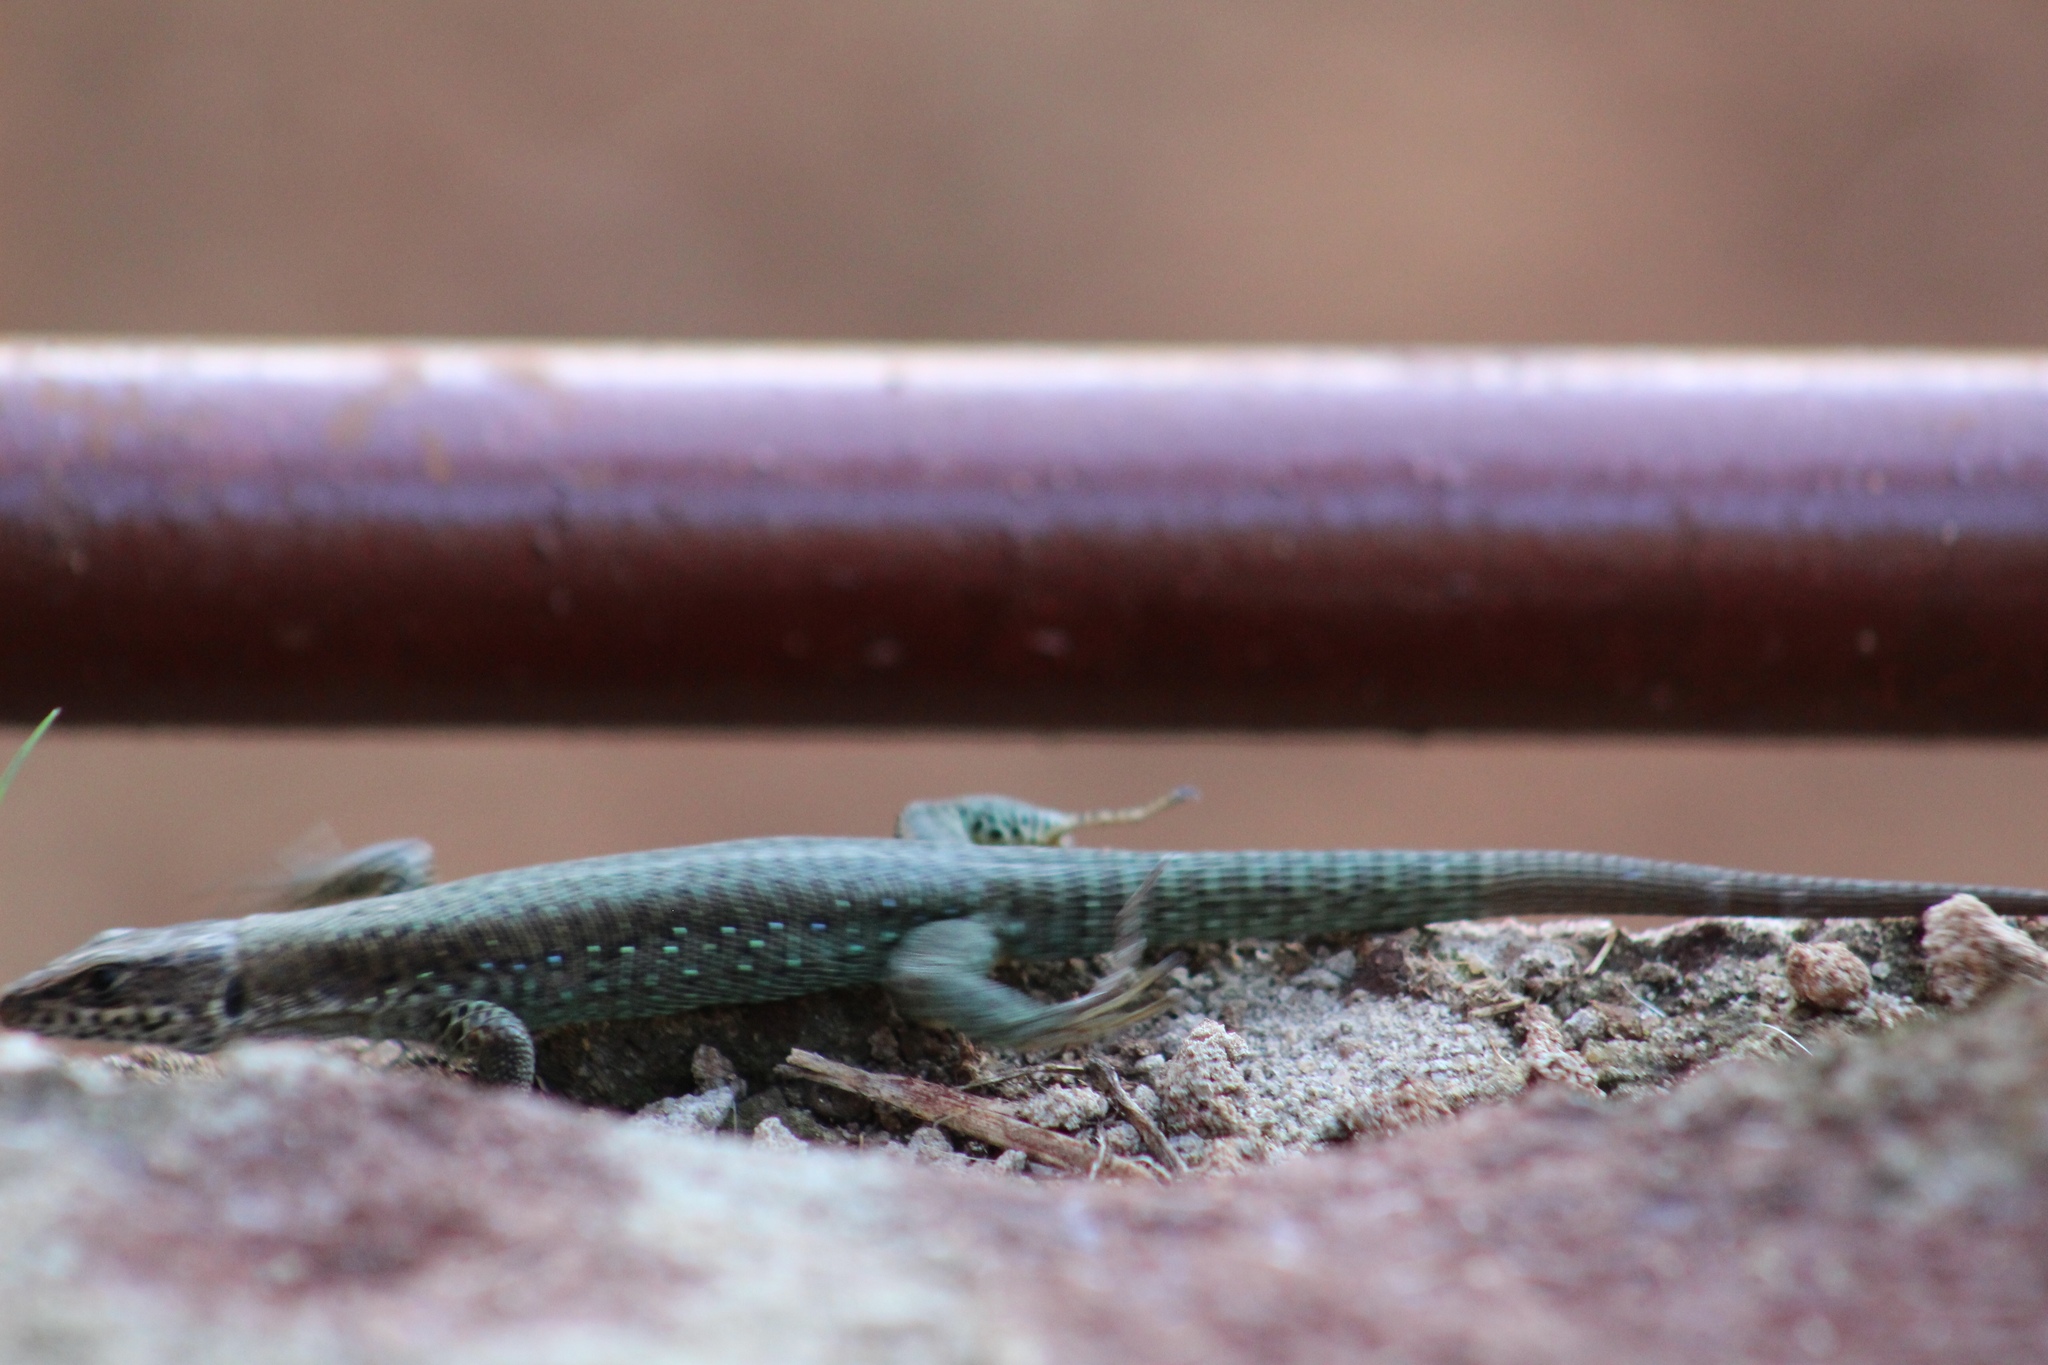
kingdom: Animalia
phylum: Chordata
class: Squamata
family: Lacertidae
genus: Adolfus
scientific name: Adolfus kibonotensis
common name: Jackson’s forest lizard
